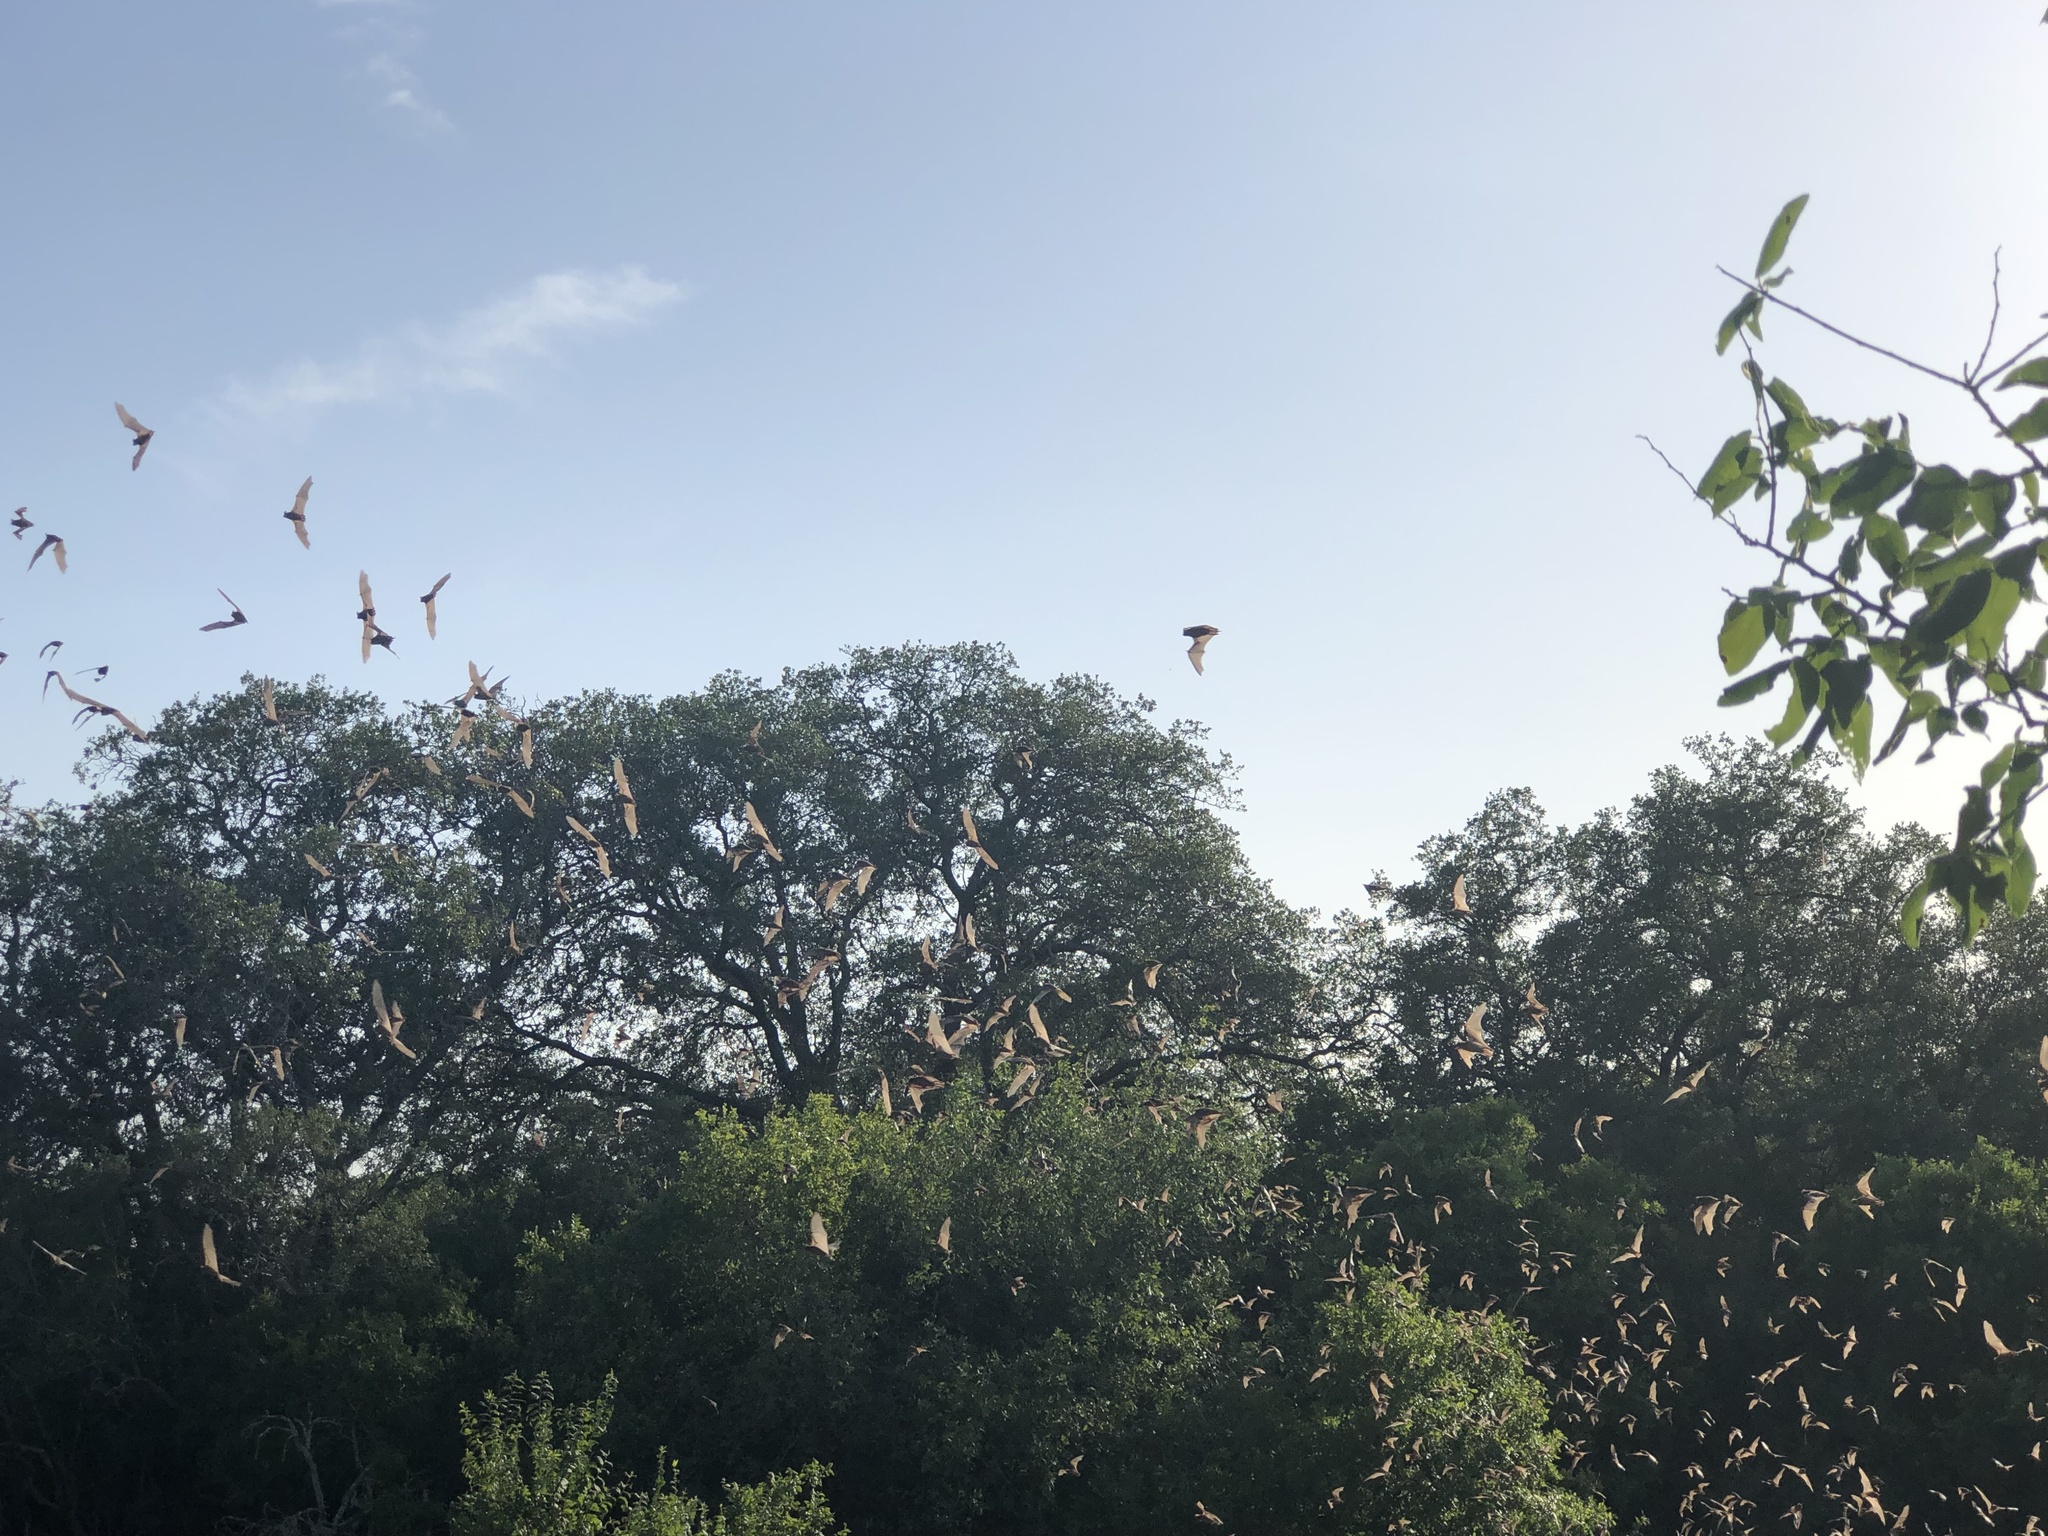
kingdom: Animalia
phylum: Chordata
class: Mammalia
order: Chiroptera
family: Molossidae
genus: Tadarida
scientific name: Tadarida brasiliensis
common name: Mexican free-tailed bat
